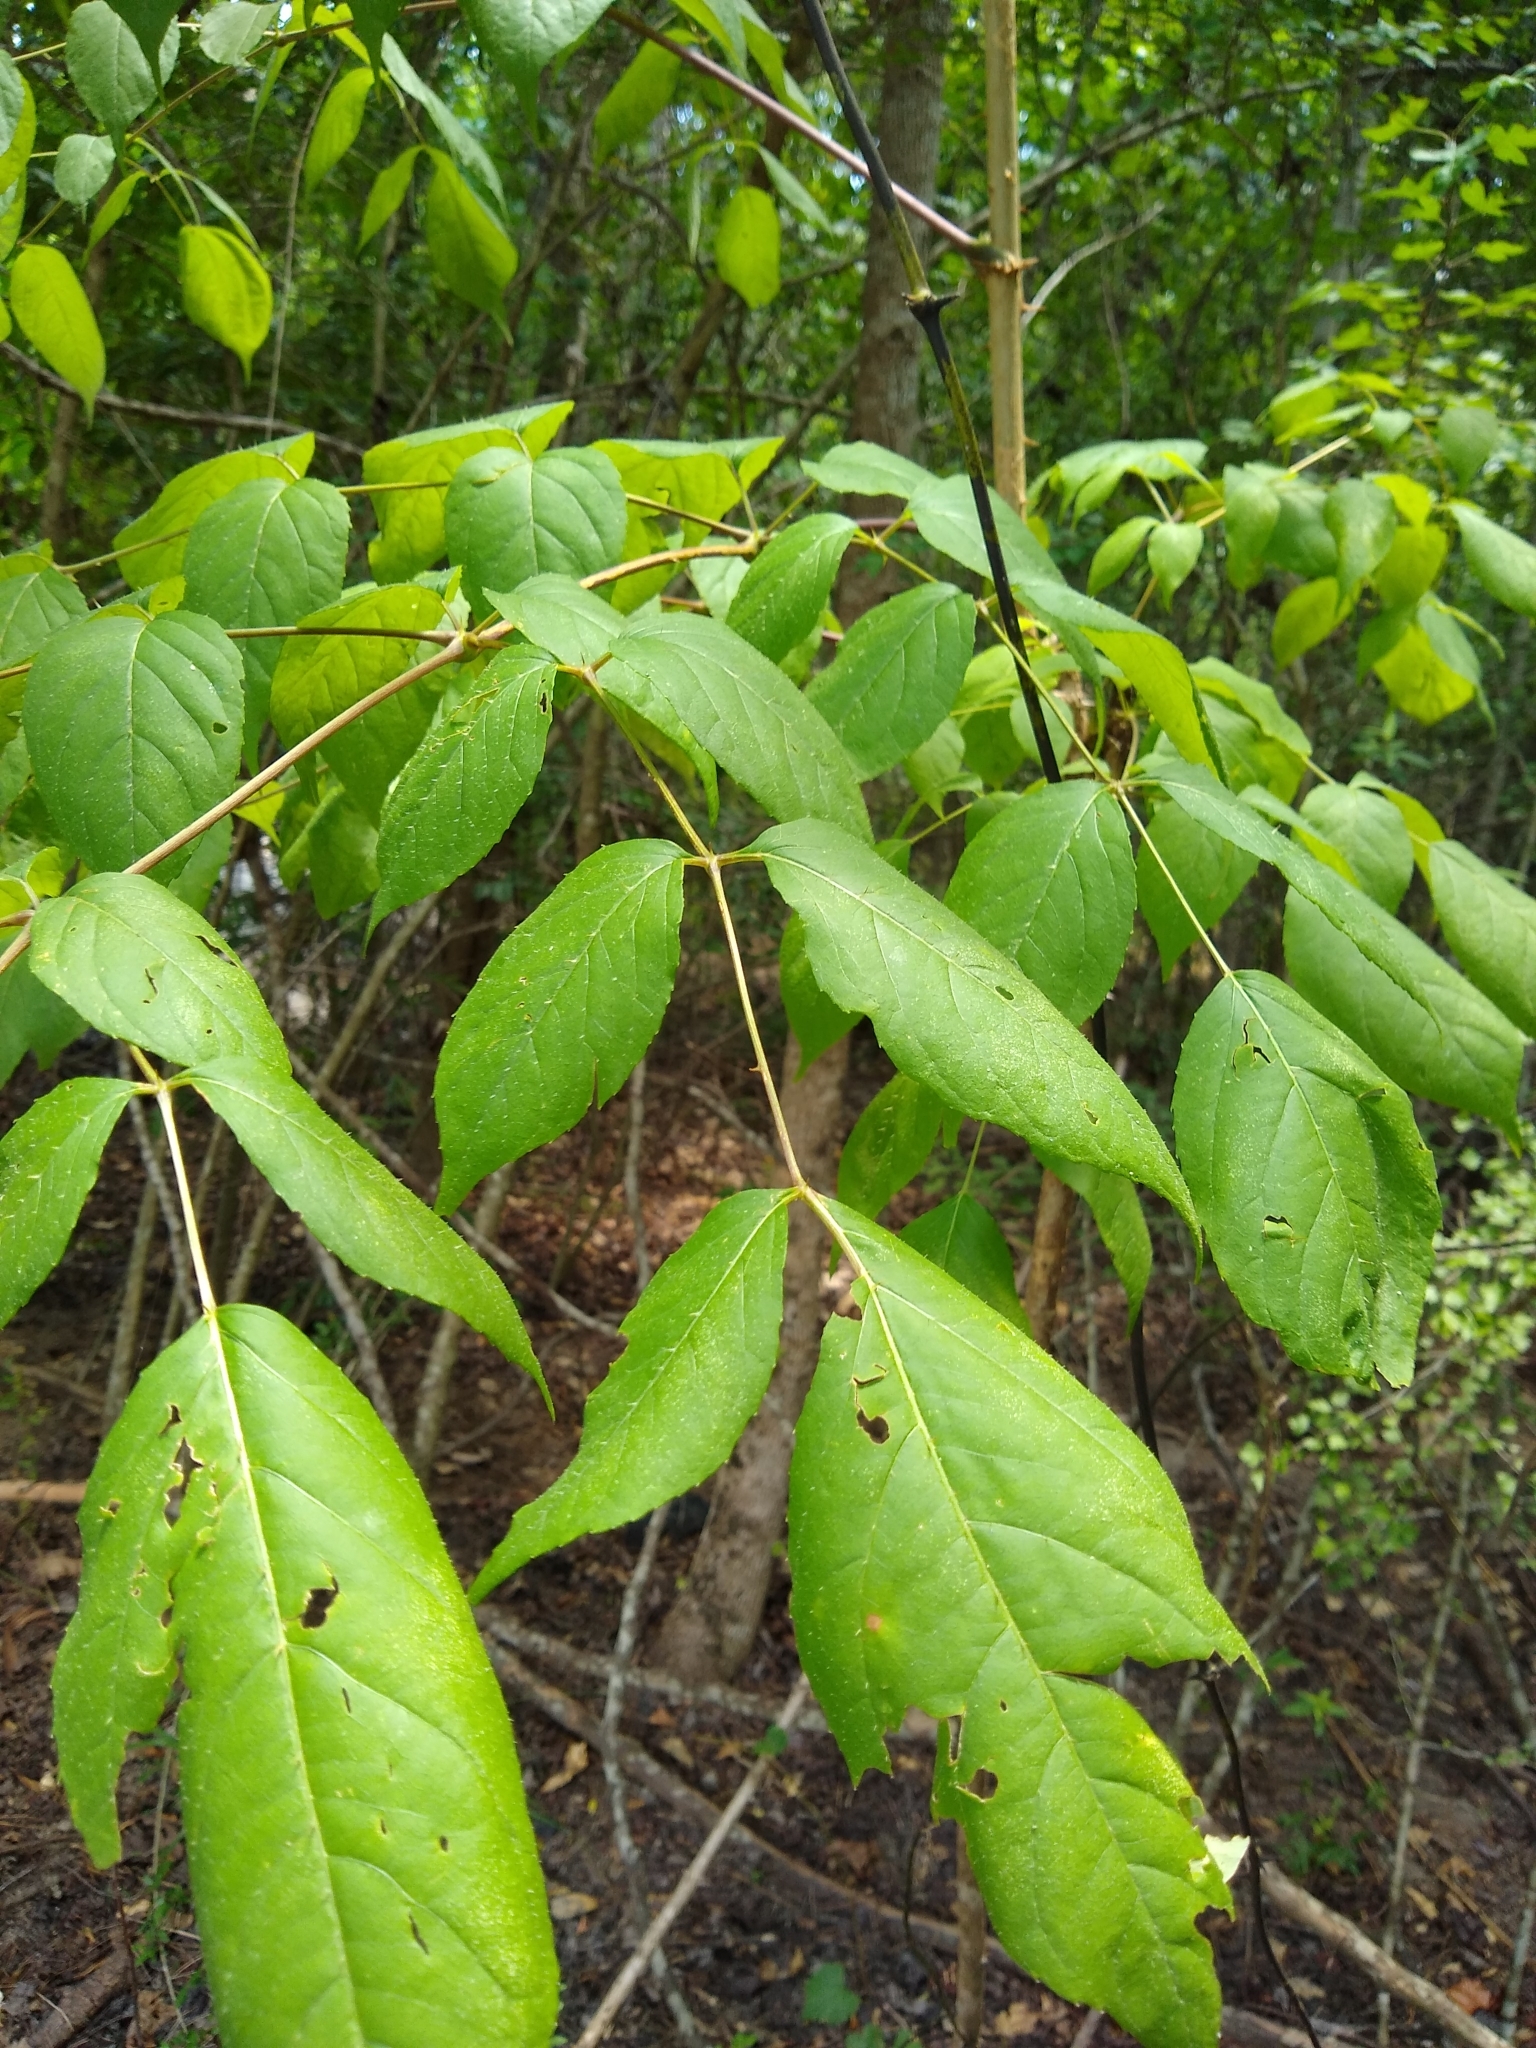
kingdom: Plantae
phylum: Tracheophyta
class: Magnoliopsida
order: Apiales
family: Araliaceae
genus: Aralia
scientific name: Aralia spinosa
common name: Hercules'-club
